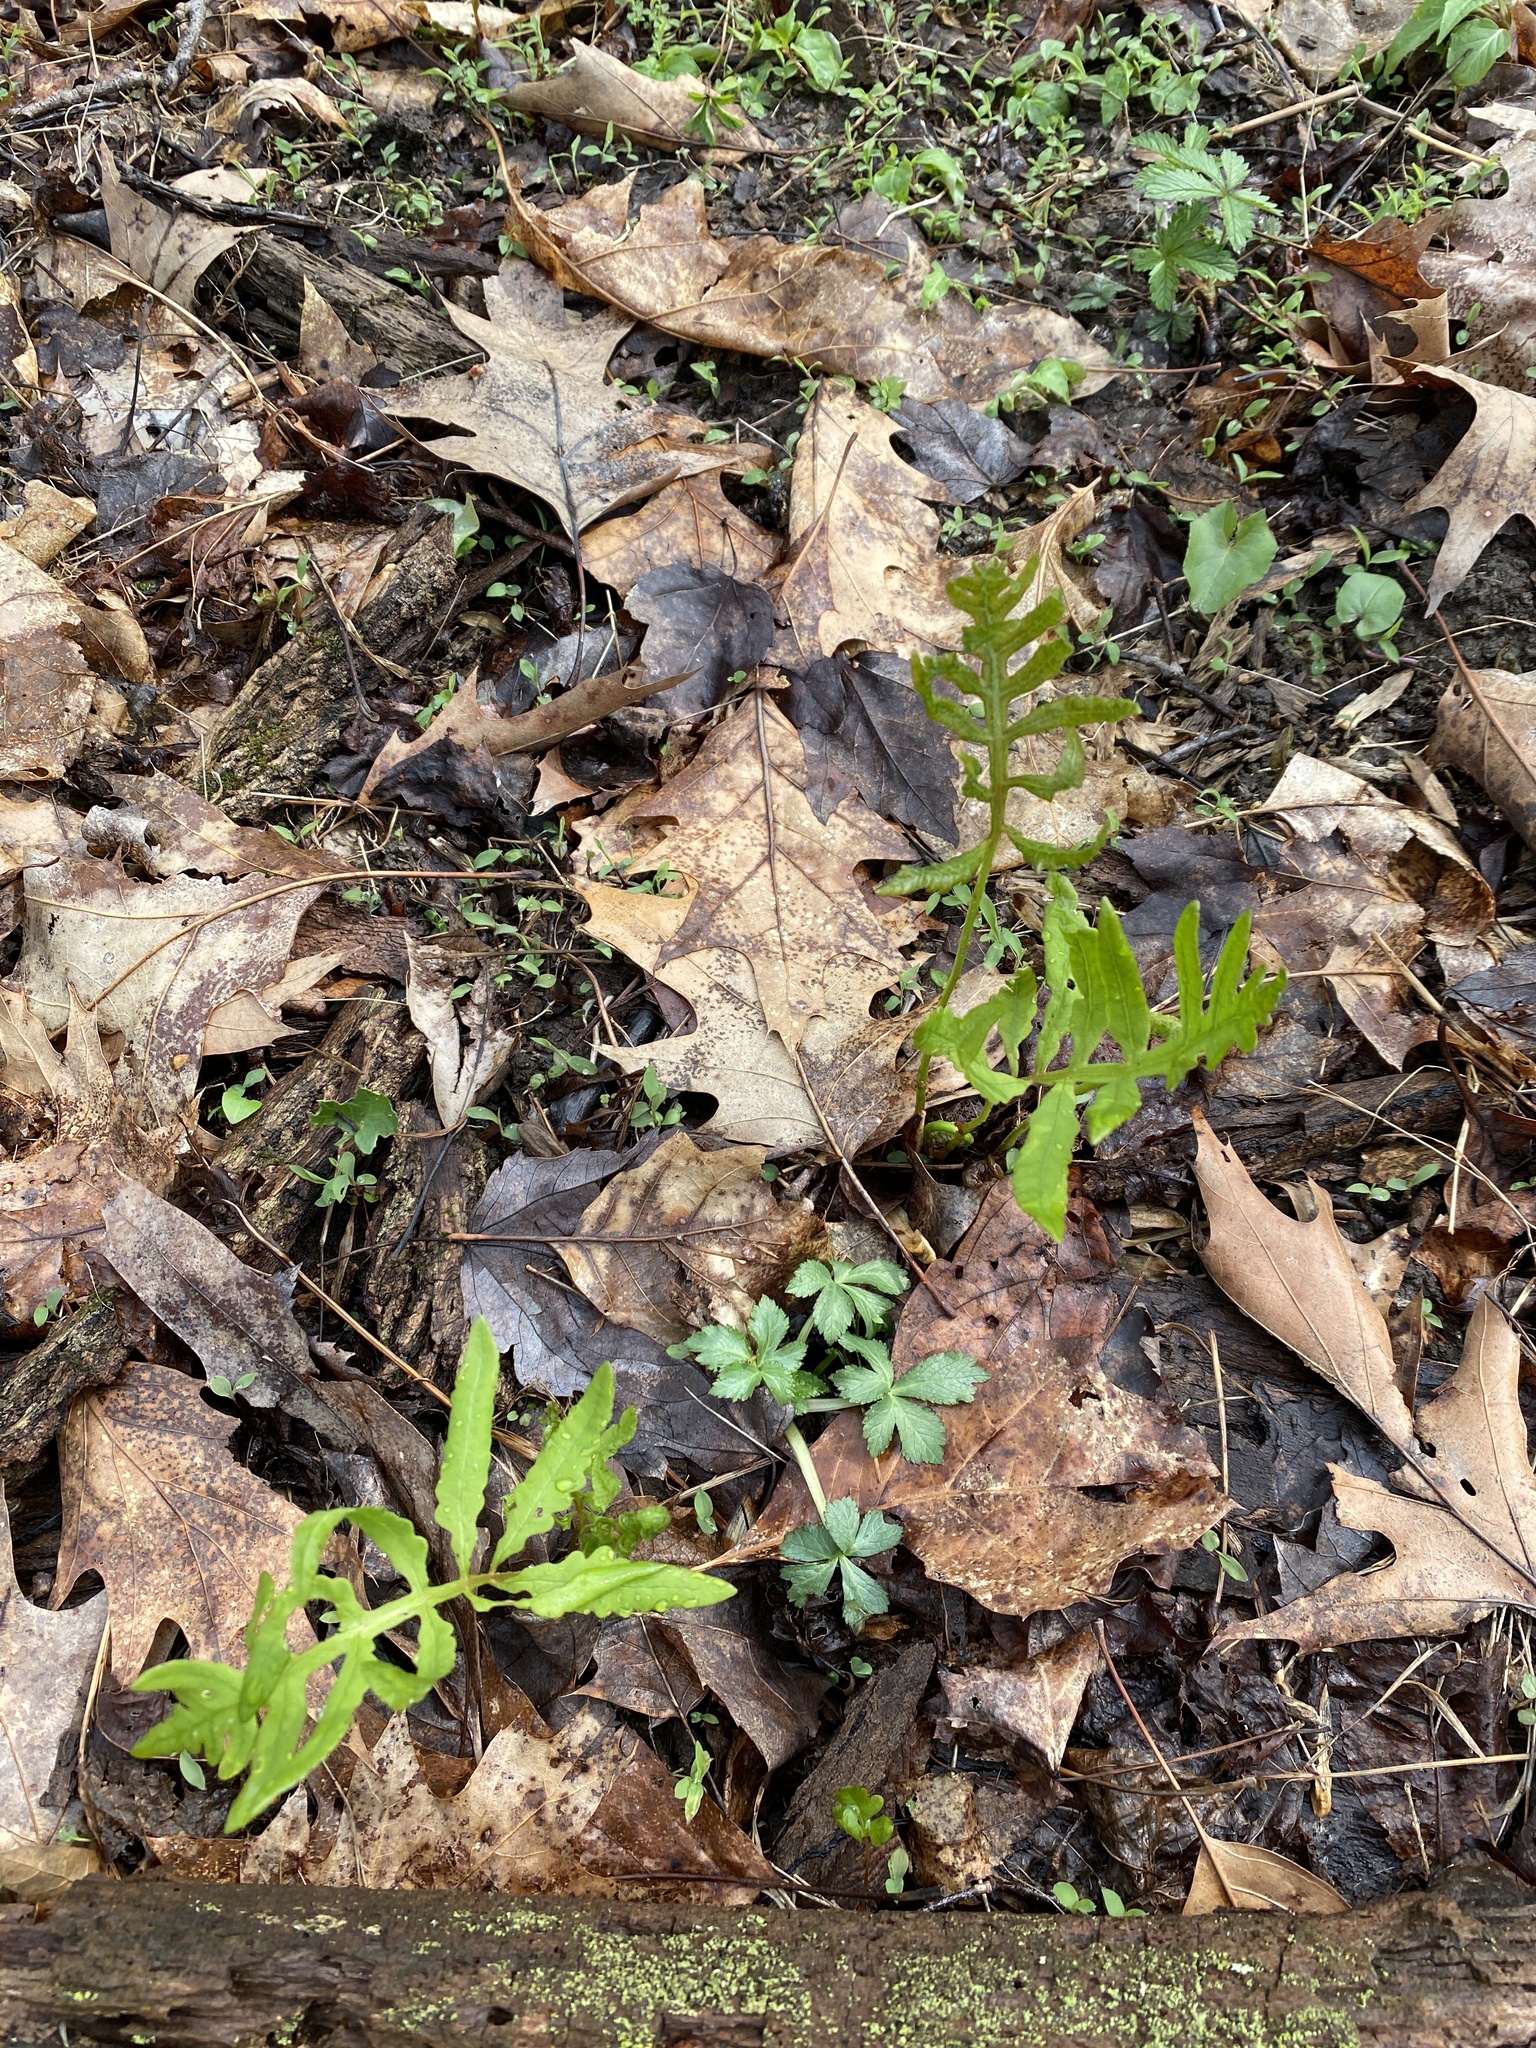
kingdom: Plantae
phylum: Tracheophyta
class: Polypodiopsida
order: Polypodiales
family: Onocleaceae
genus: Onoclea
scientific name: Onoclea sensibilis
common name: Sensitive fern
